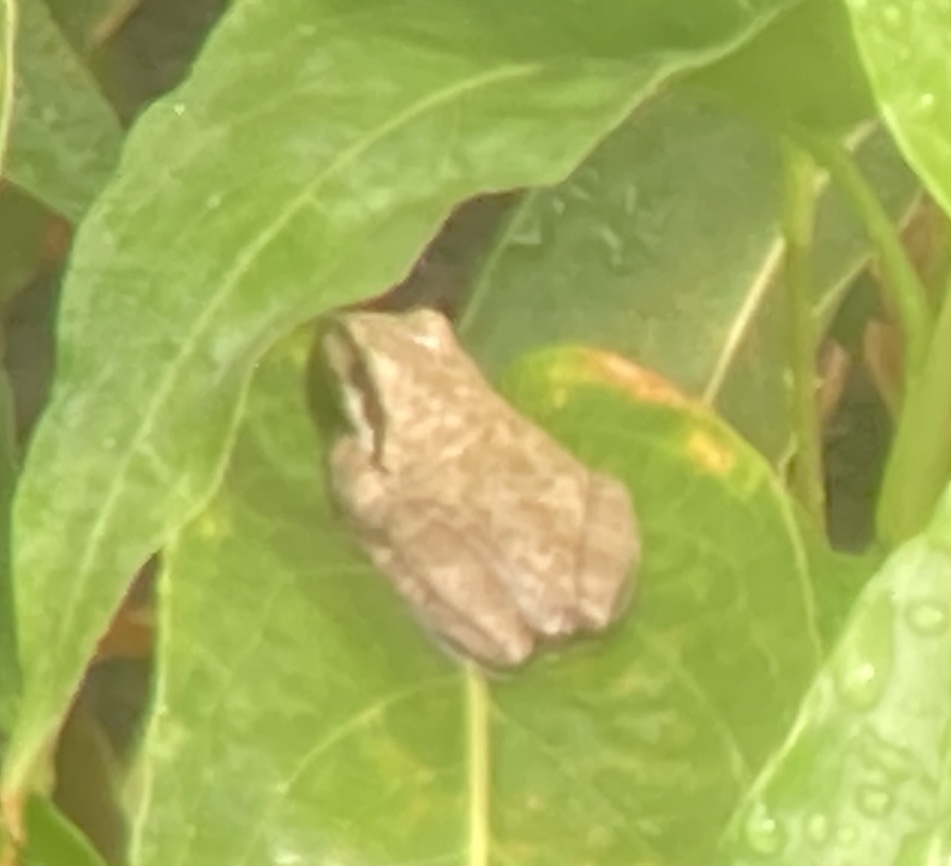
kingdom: Animalia
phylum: Chordata
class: Amphibia
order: Anura
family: Hylidae
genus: Pseudacris
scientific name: Pseudacris regilla
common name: Pacific chorus frog
